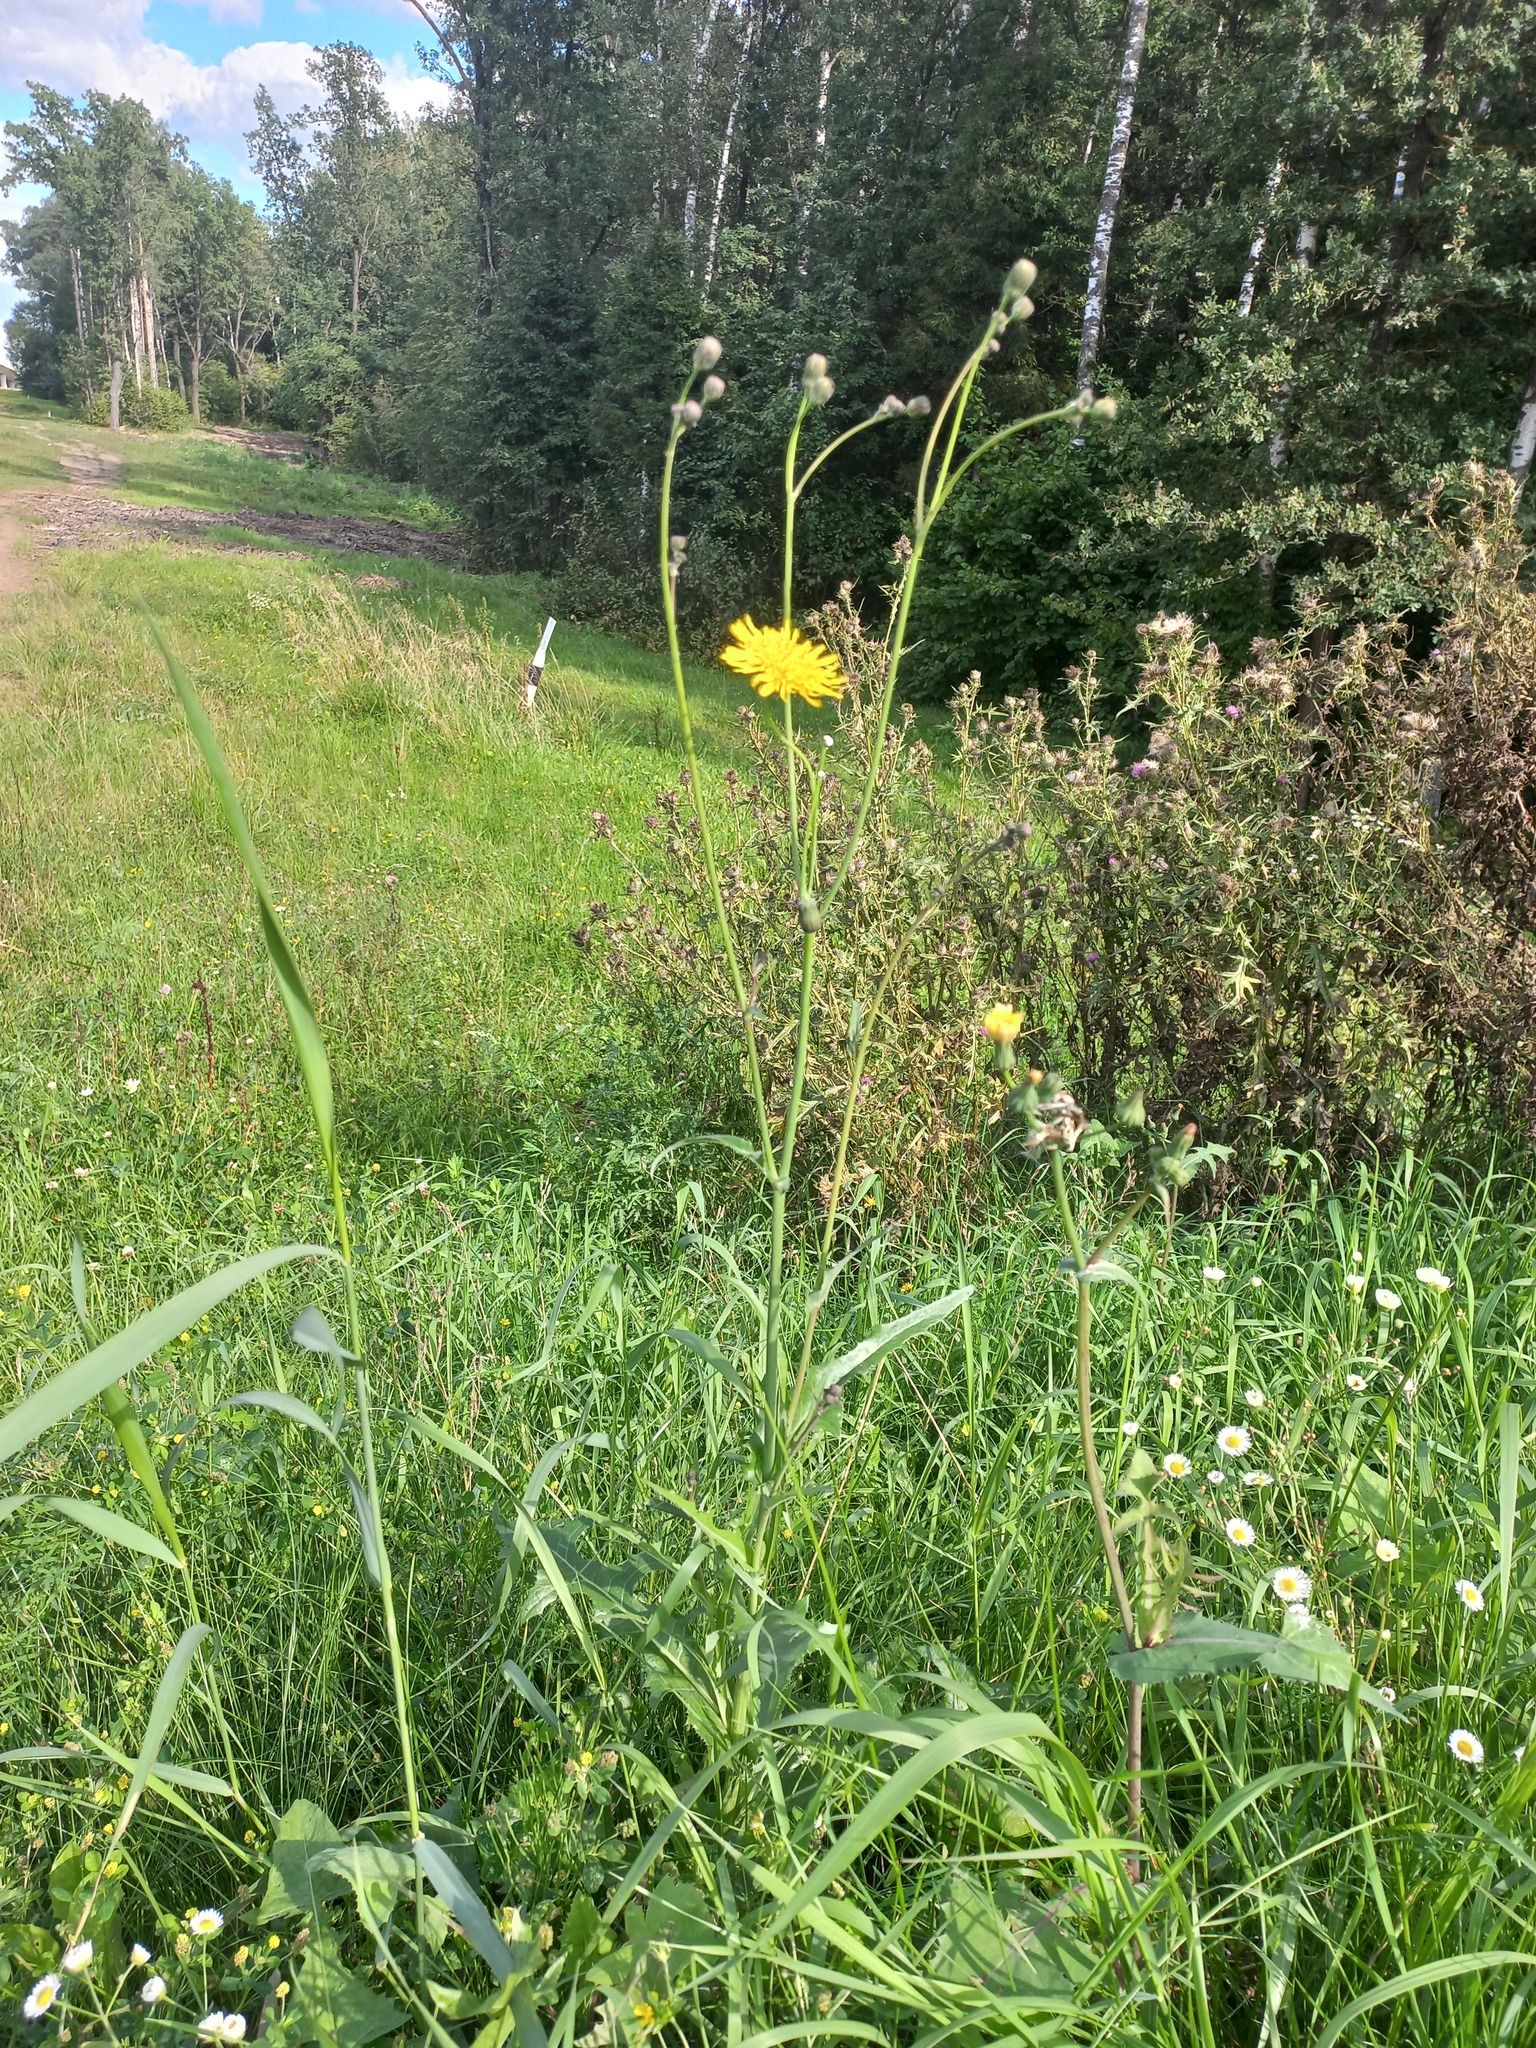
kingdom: Plantae
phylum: Tracheophyta
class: Magnoliopsida
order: Asterales
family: Asteraceae
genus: Sonchus
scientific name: Sonchus arvensis
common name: Perennial sow-thistle
